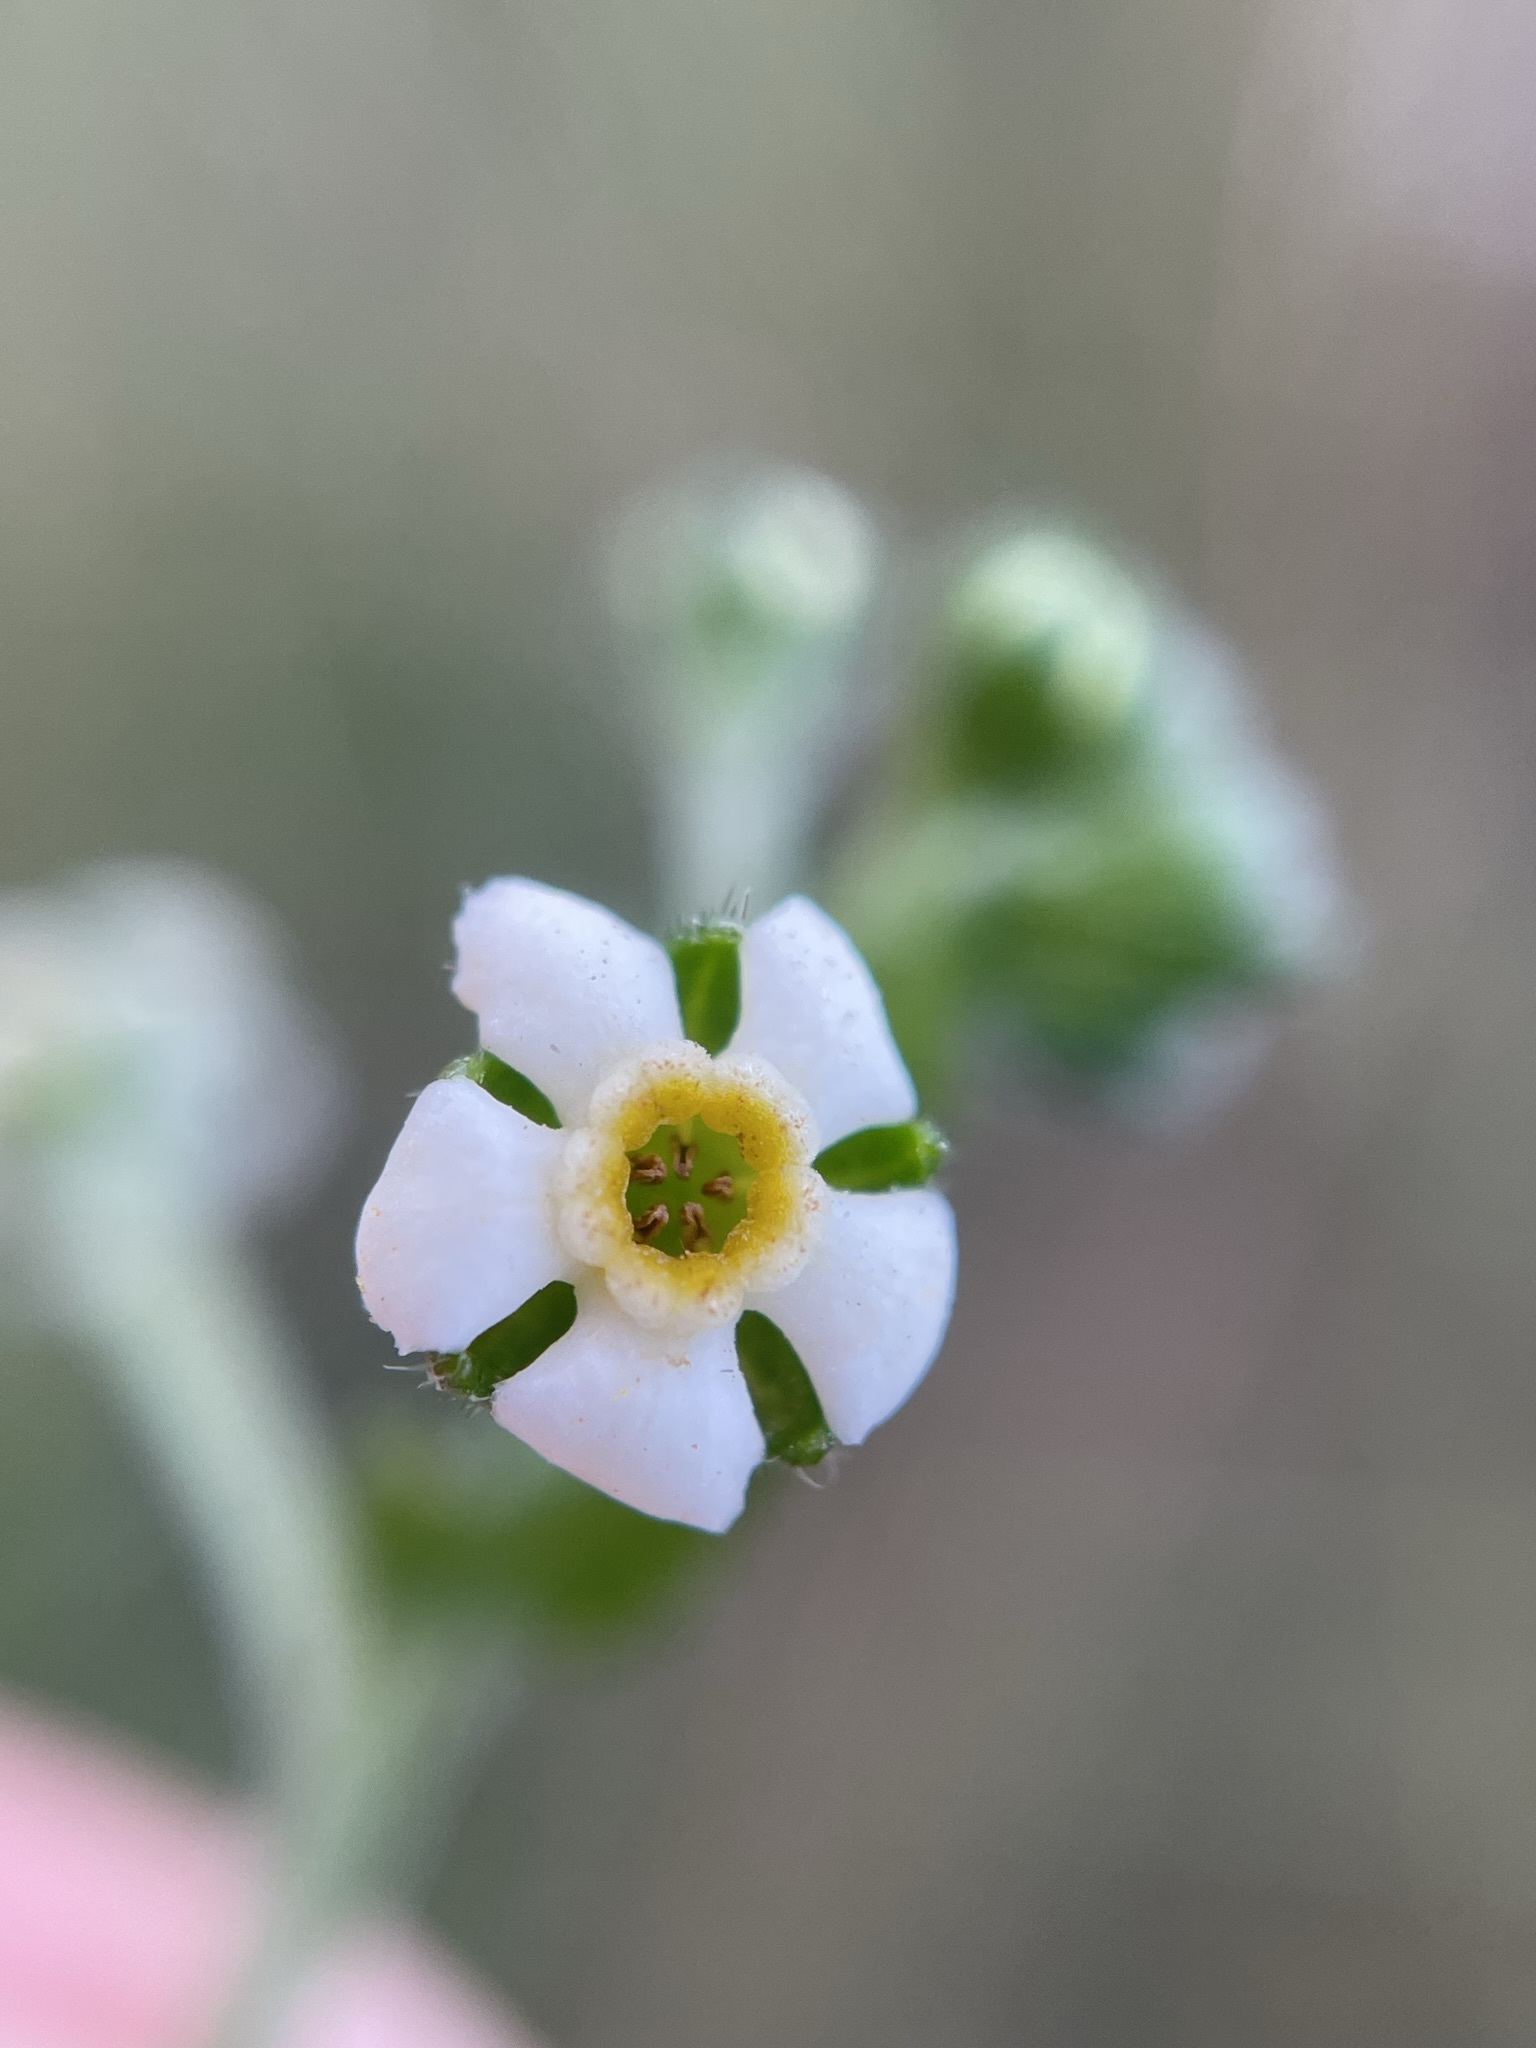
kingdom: Plantae
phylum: Tracheophyta
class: Magnoliopsida
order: Boraginales
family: Boraginaceae
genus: Hackelia
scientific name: Hackelia suaveolens
